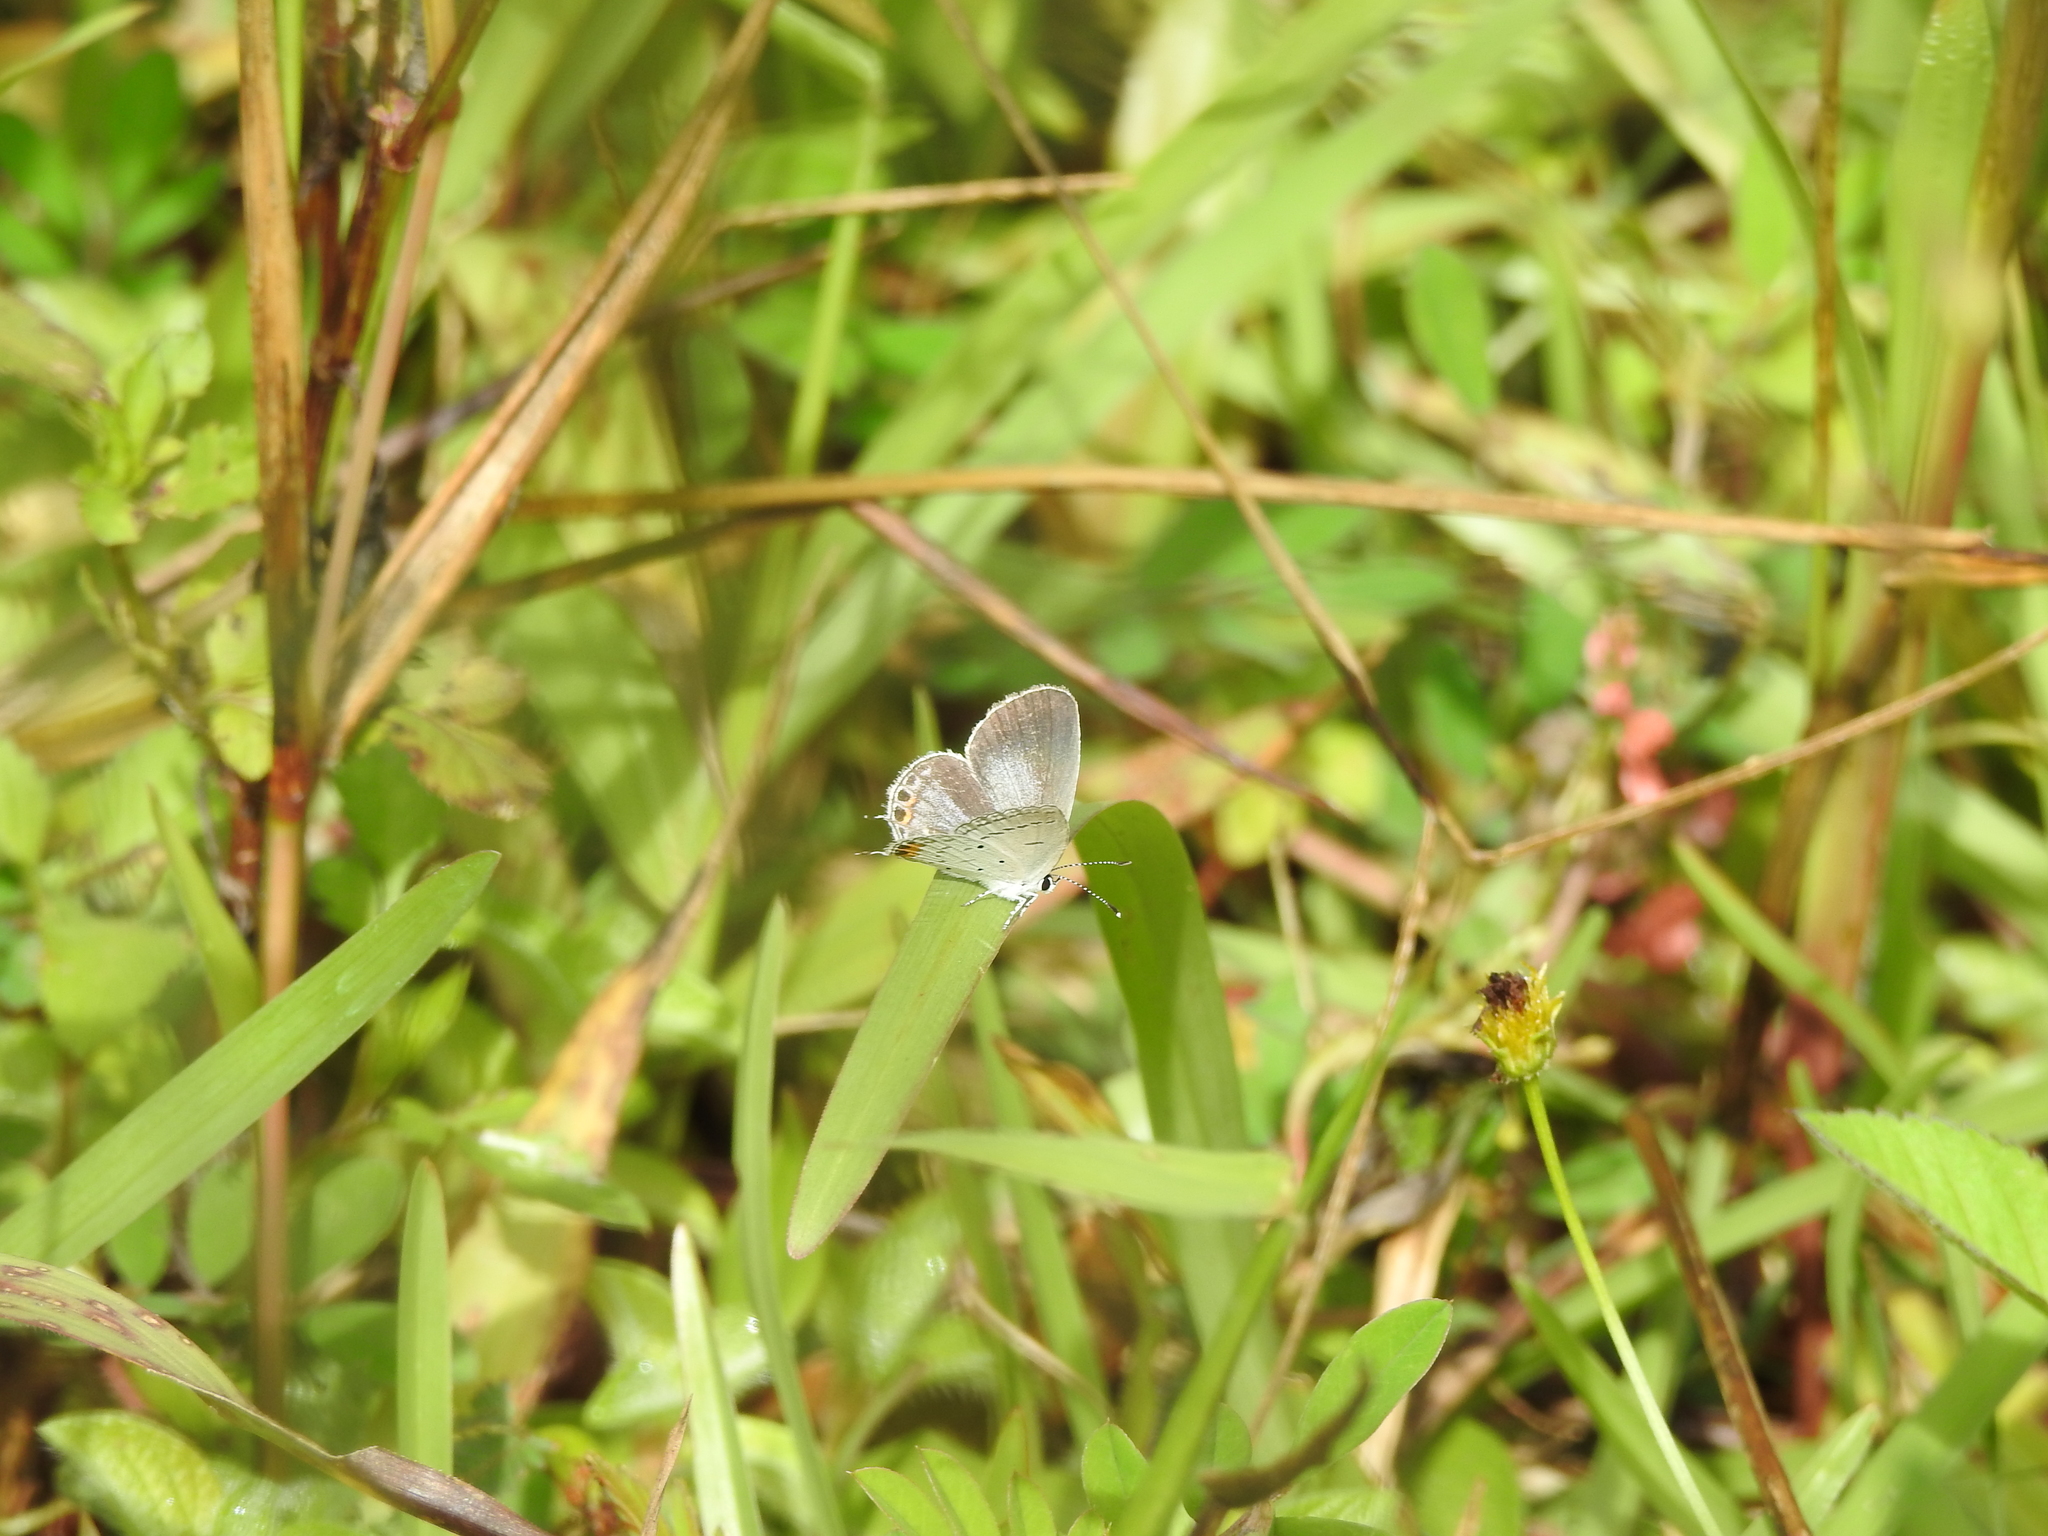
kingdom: Animalia
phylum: Arthropoda
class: Insecta
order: Lepidoptera
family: Lycaenidae
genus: Everes
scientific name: Everes lacturnus
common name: Orange-tipped pea-blue
